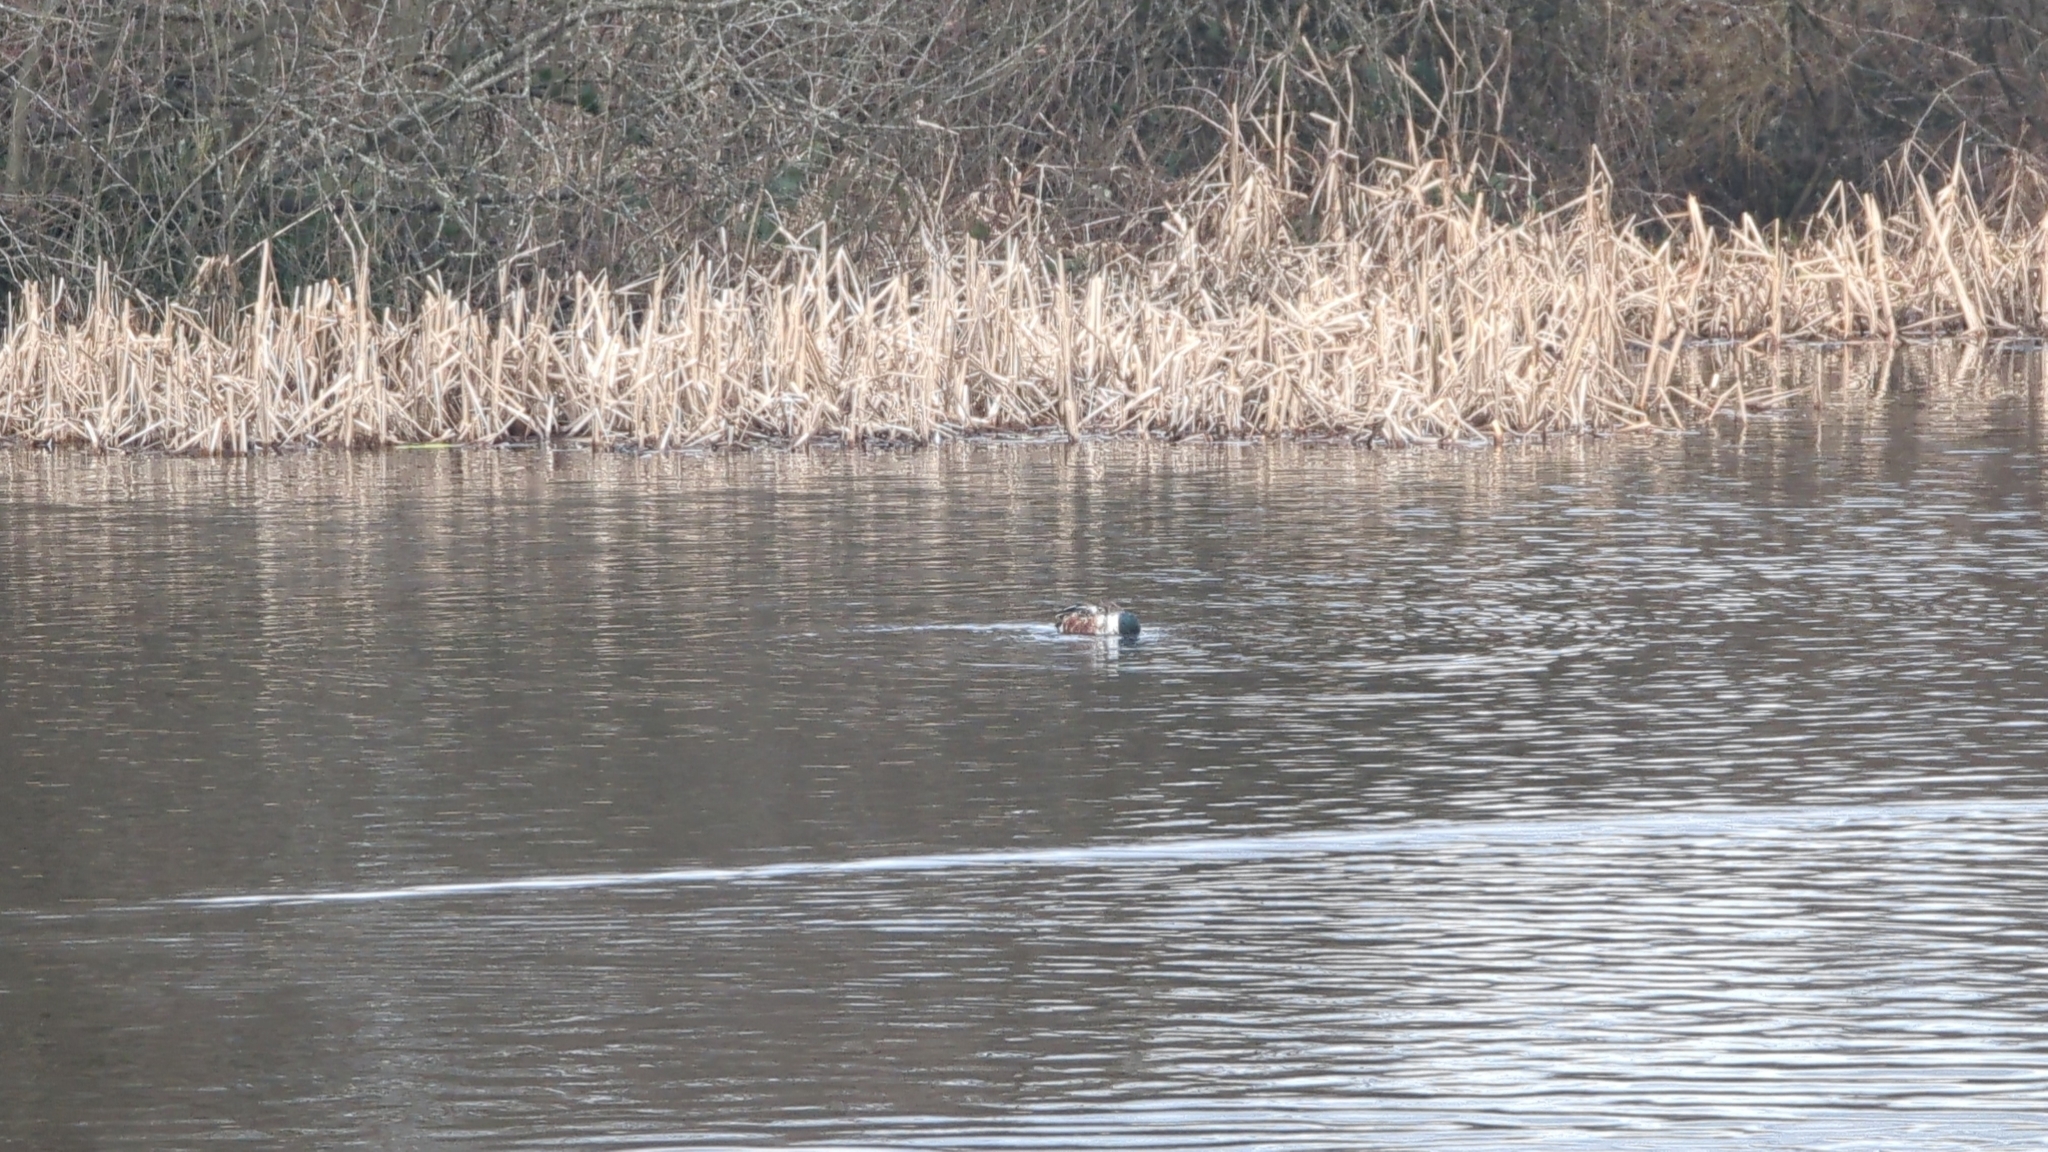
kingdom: Animalia
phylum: Chordata
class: Aves
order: Anseriformes
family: Anatidae
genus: Spatula
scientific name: Spatula clypeata
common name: Northern shoveler
